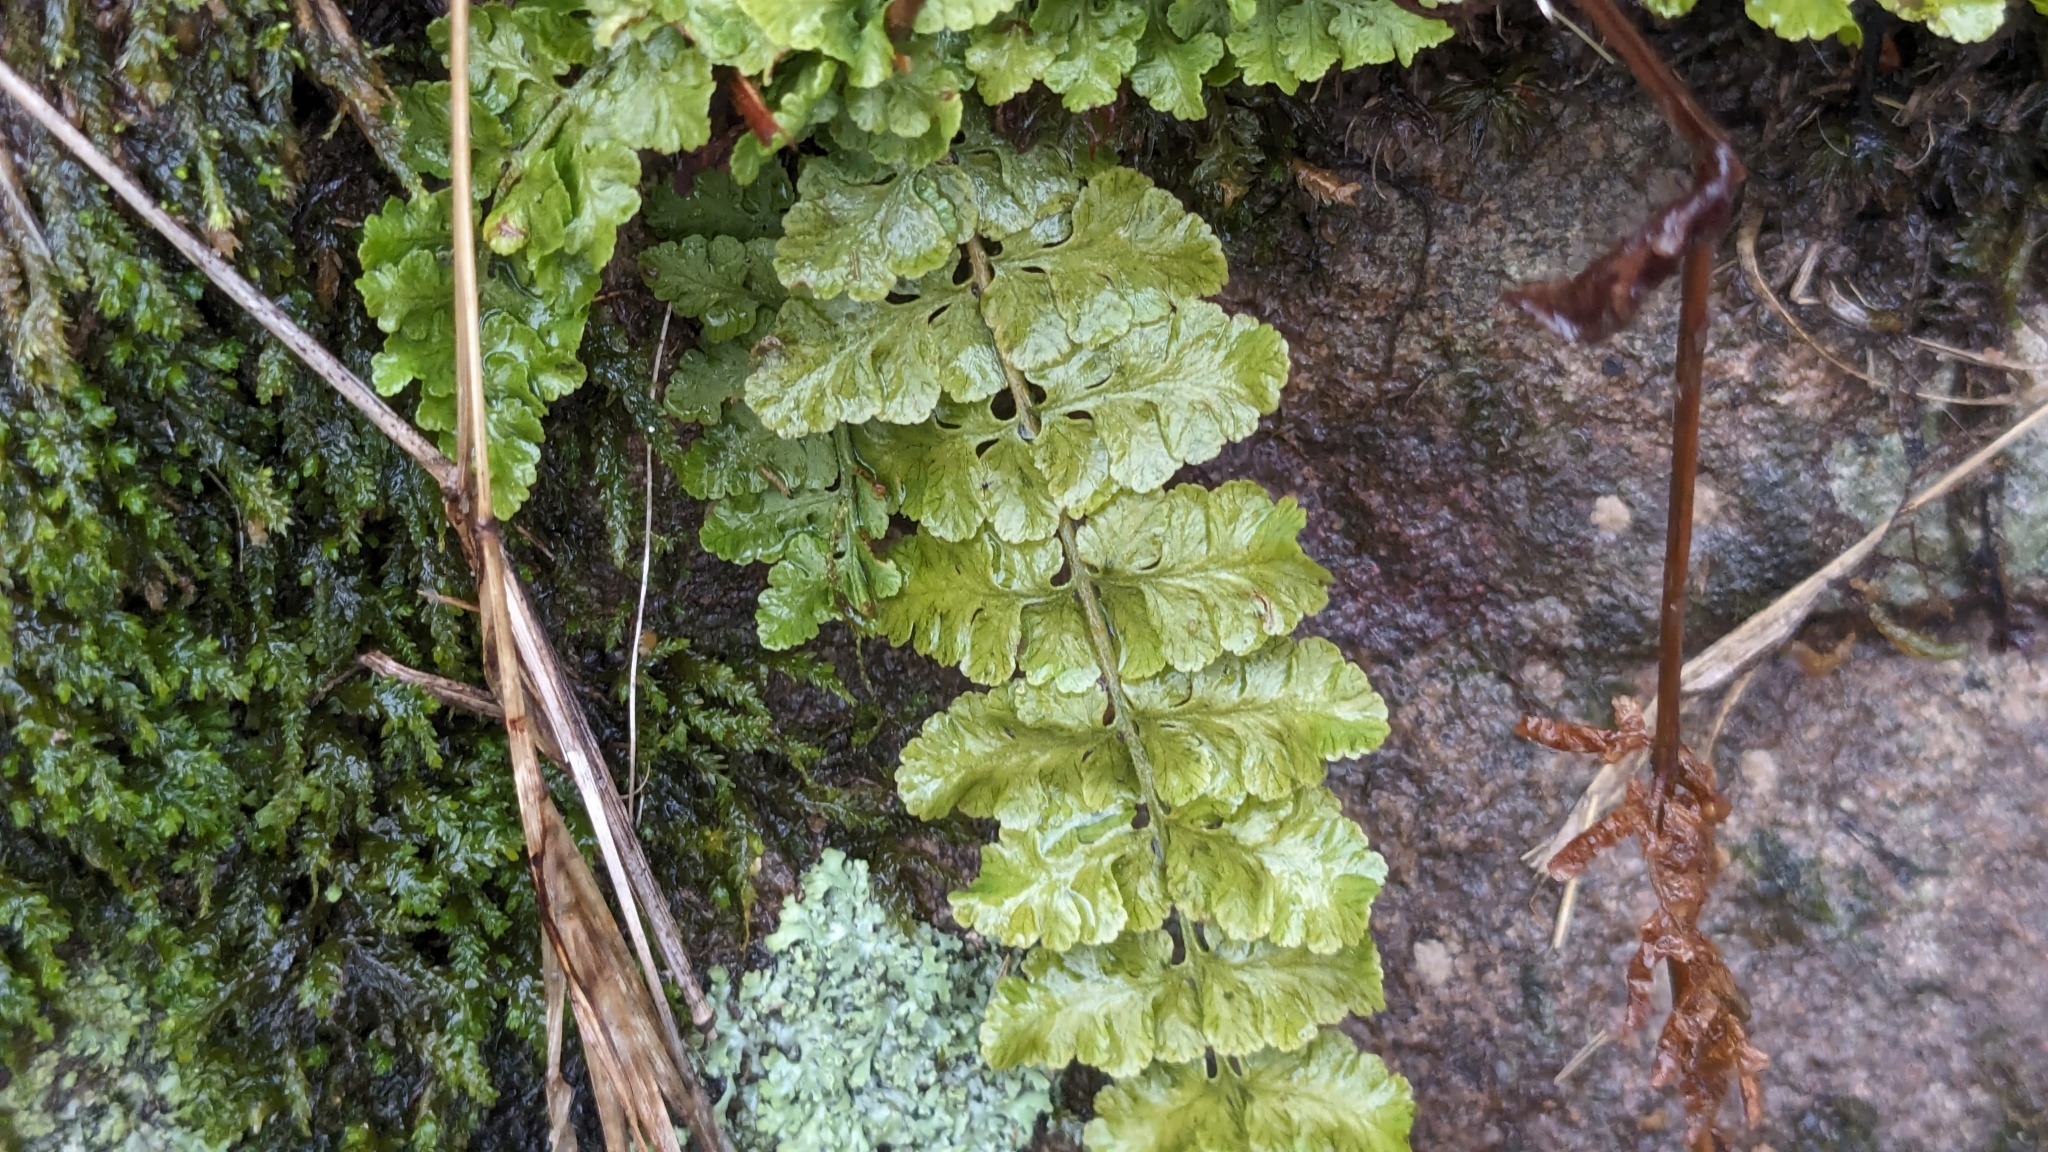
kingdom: Plantae
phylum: Tracheophyta
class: Polypodiopsida
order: Polypodiales
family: Woodsiaceae
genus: Physematium
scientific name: Physematium obtusum
